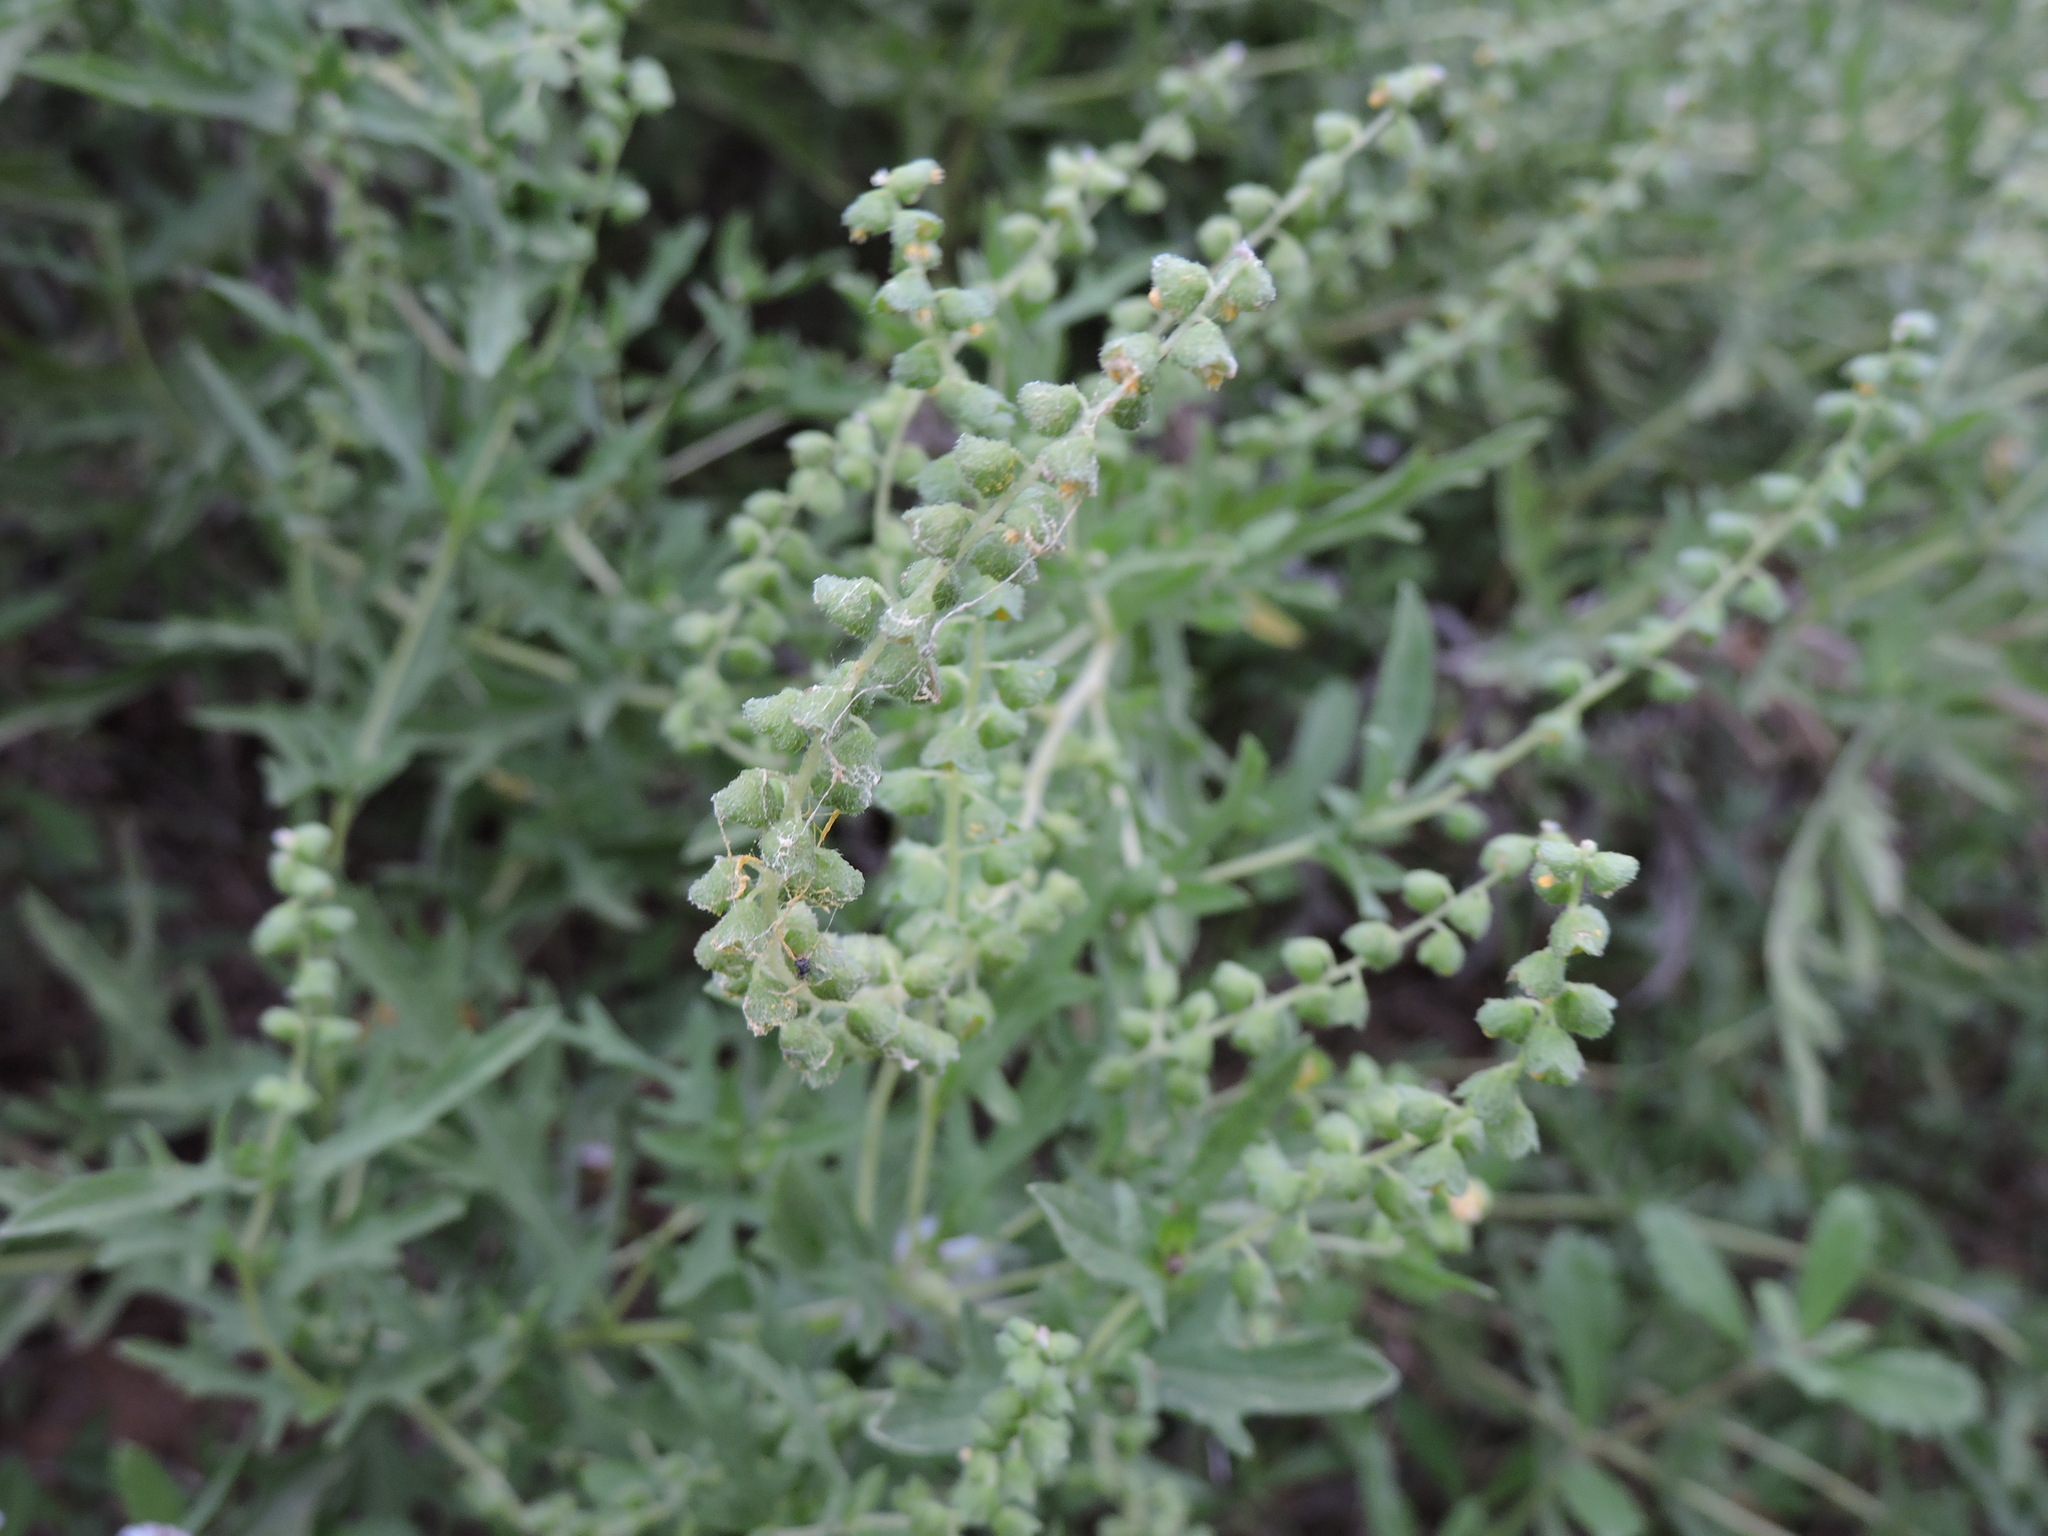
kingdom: Plantae
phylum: Tracheophyta
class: Magnoliopsida
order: Asterales
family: Asteraceae
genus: Ambrosia
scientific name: Ambrosia psilostachya
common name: Perennial ragweed
